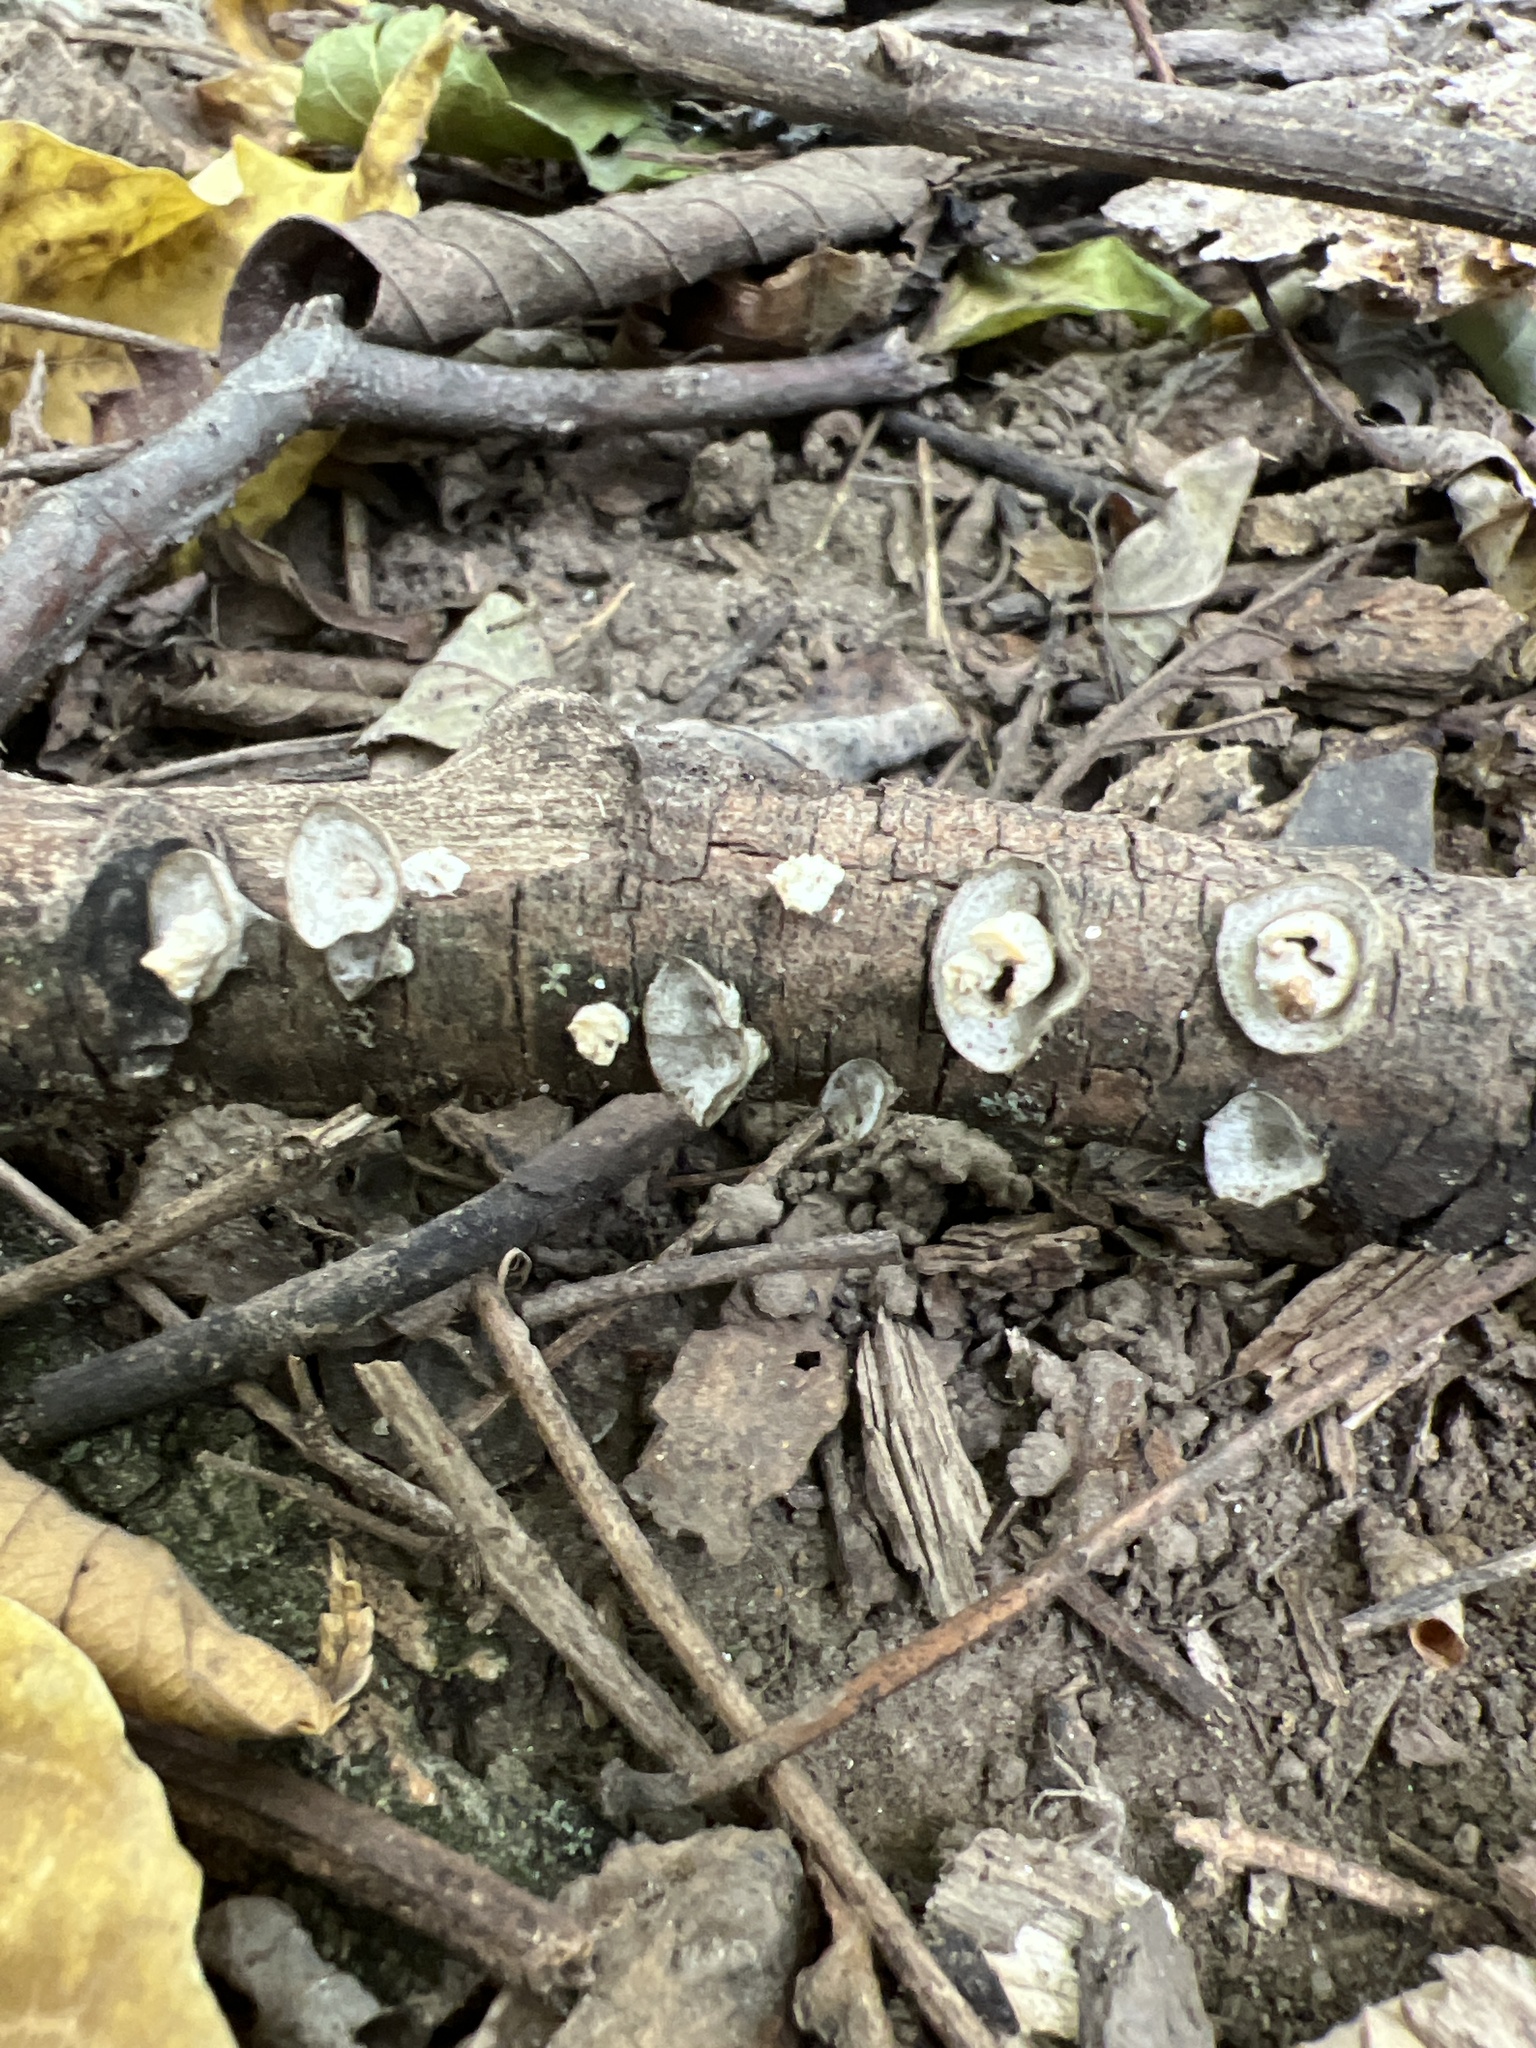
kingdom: Fungi
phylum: Basidiomycota
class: Agaricomycetes
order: Polyporales
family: Polyporaceae
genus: Poronidulus
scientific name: Poronidulus conchifer
